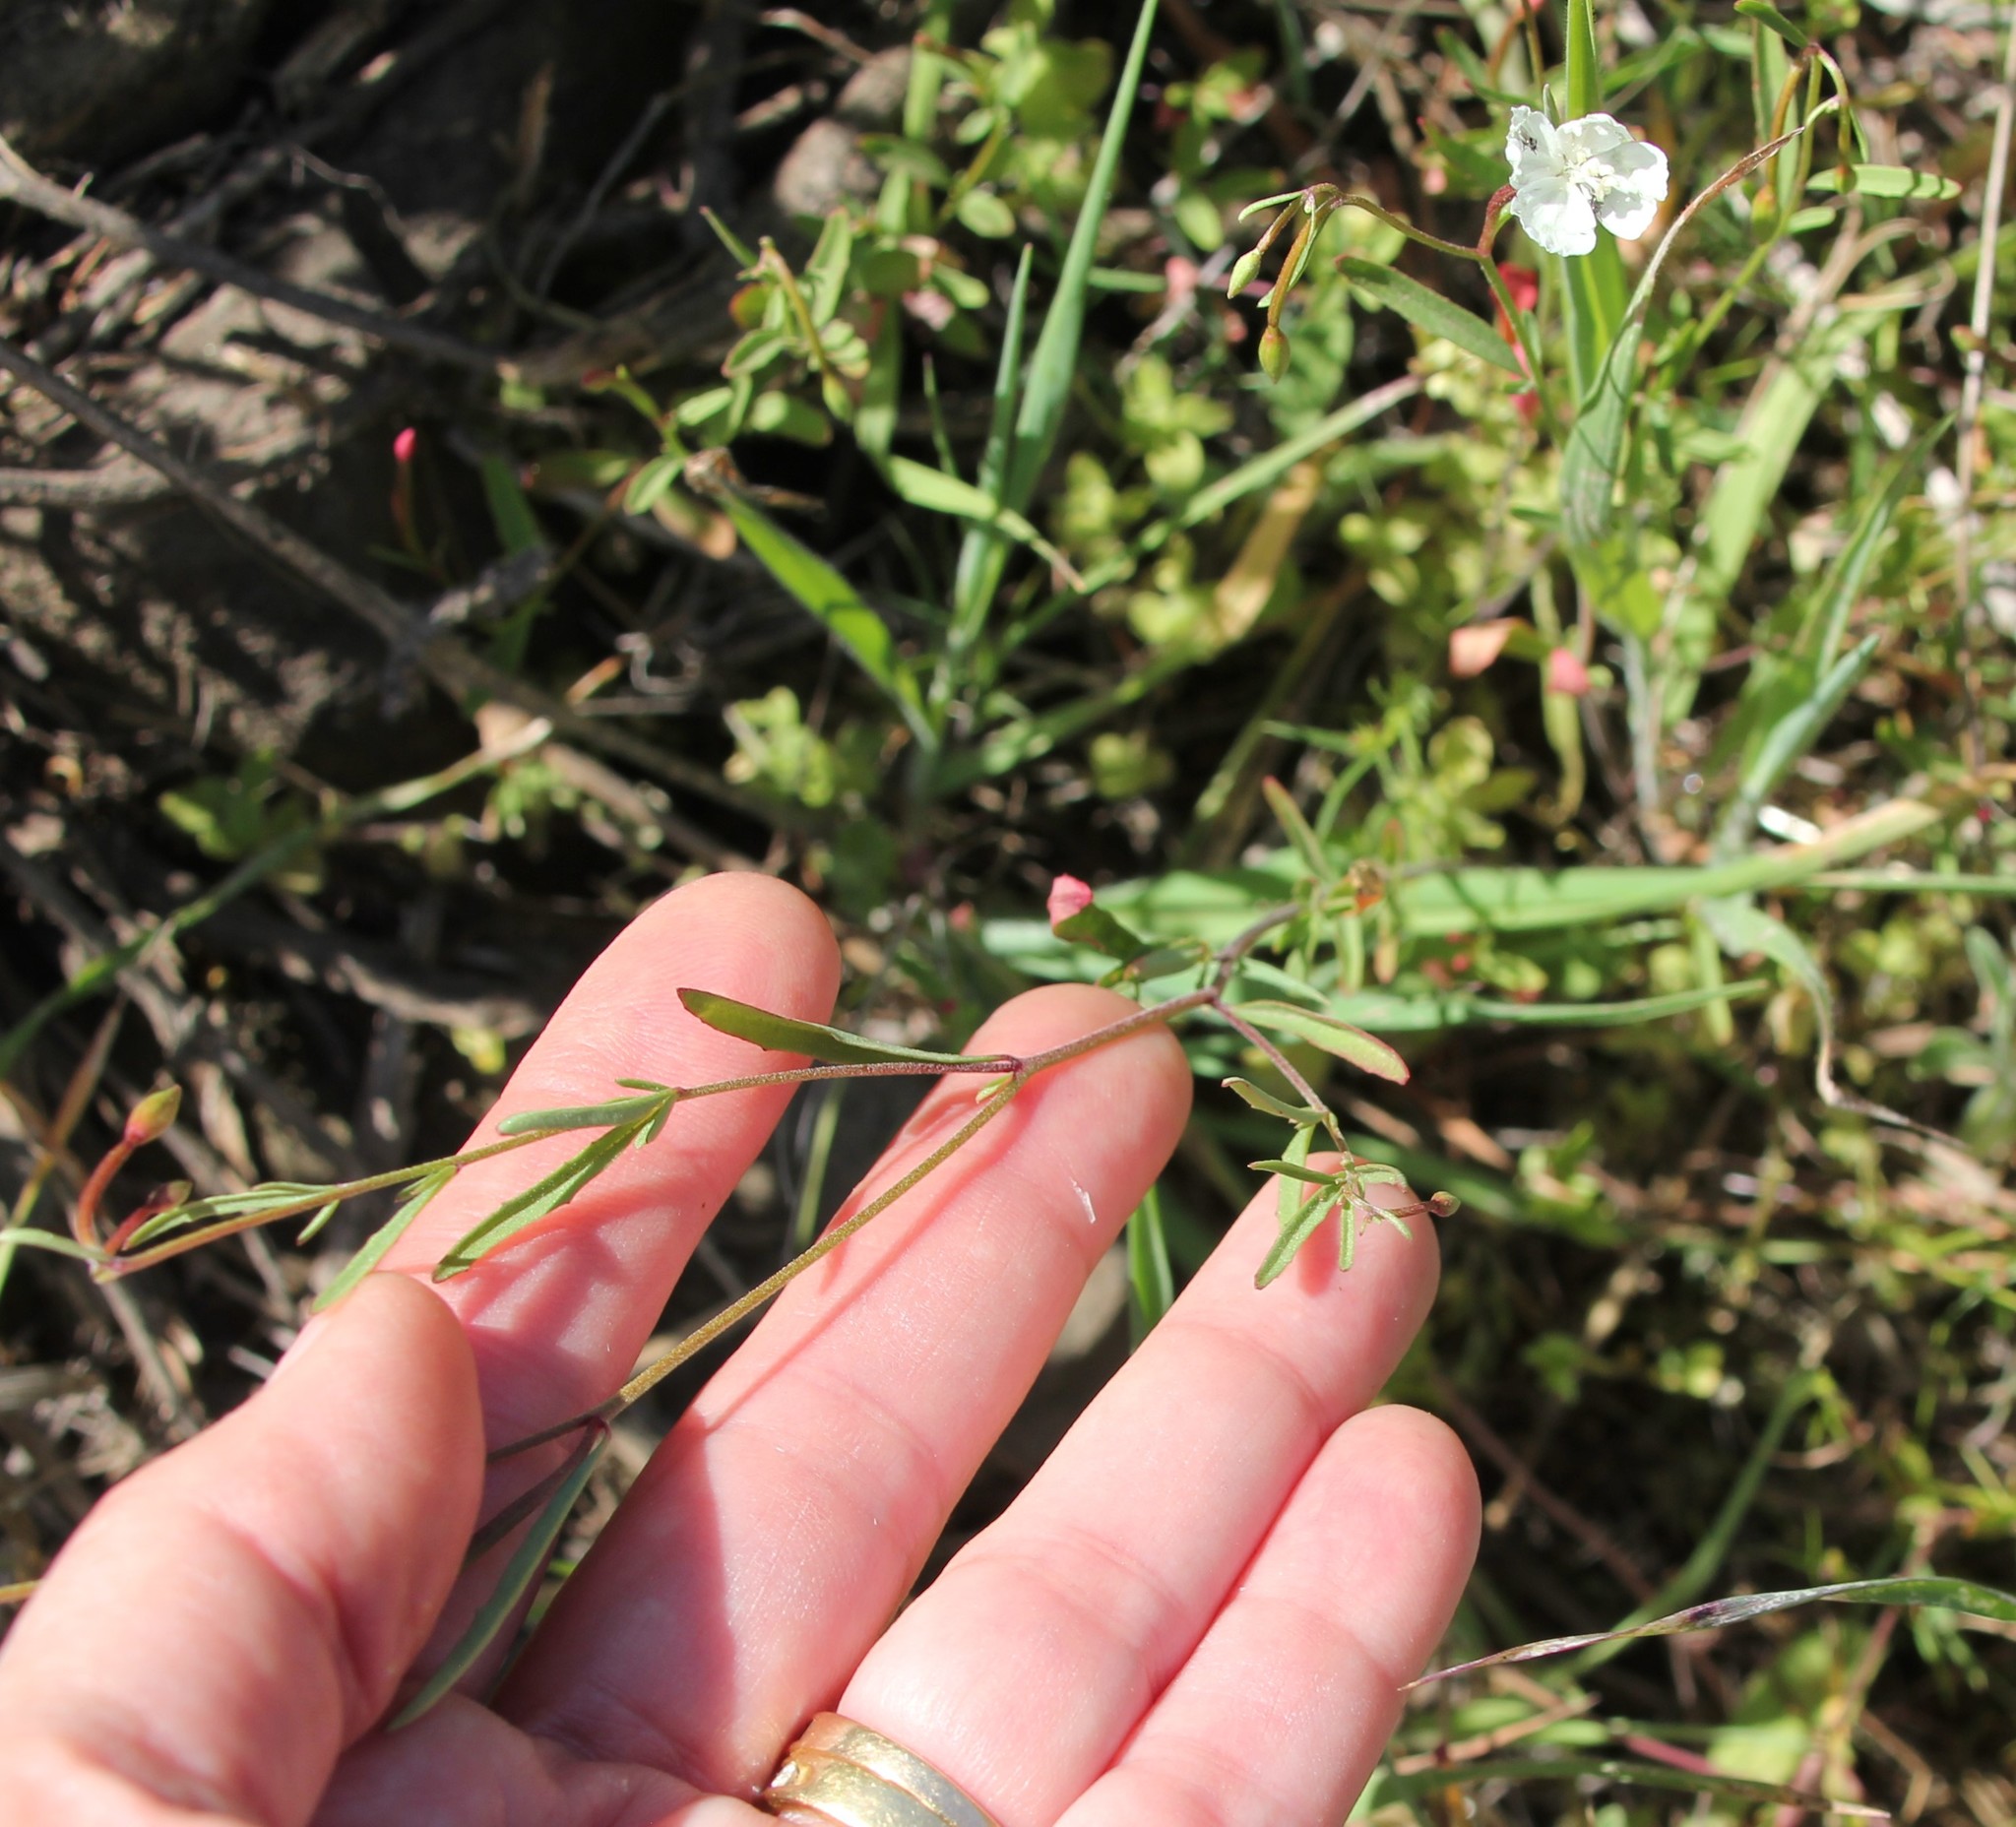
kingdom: Plantae
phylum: Tracheophyta
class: Magnoliopsida
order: Myrtales
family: Onagraceae
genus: Clarkia
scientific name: Clarkia epilobioides
